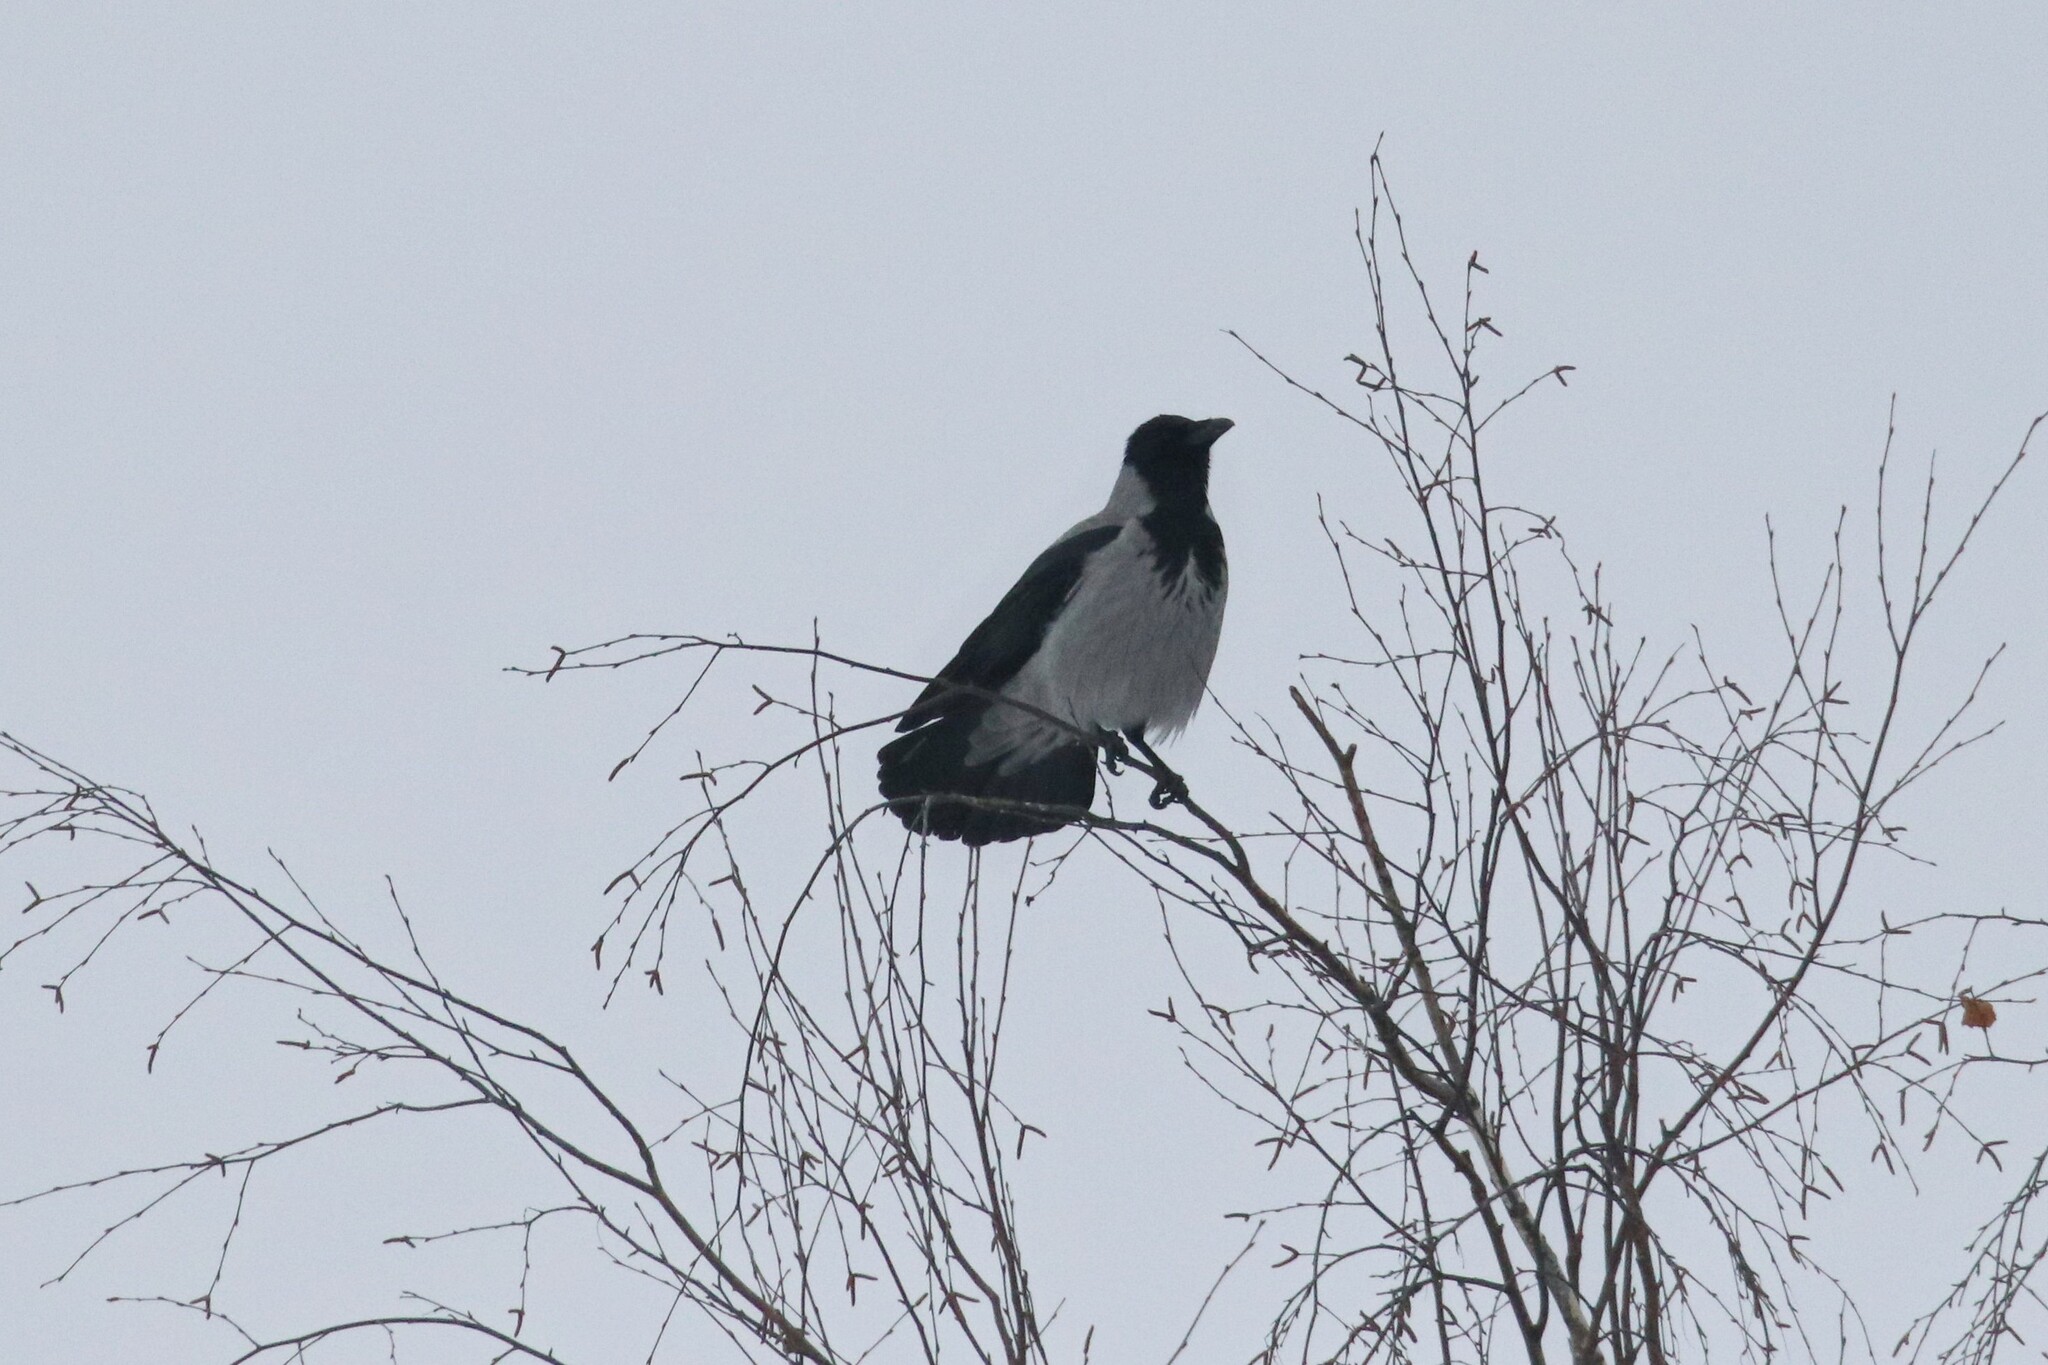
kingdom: Animalia
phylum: Chordata
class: Aves
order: Passeriformes
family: Corvidae
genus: Corvus
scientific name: Corvus cornix
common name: Hooded crow
